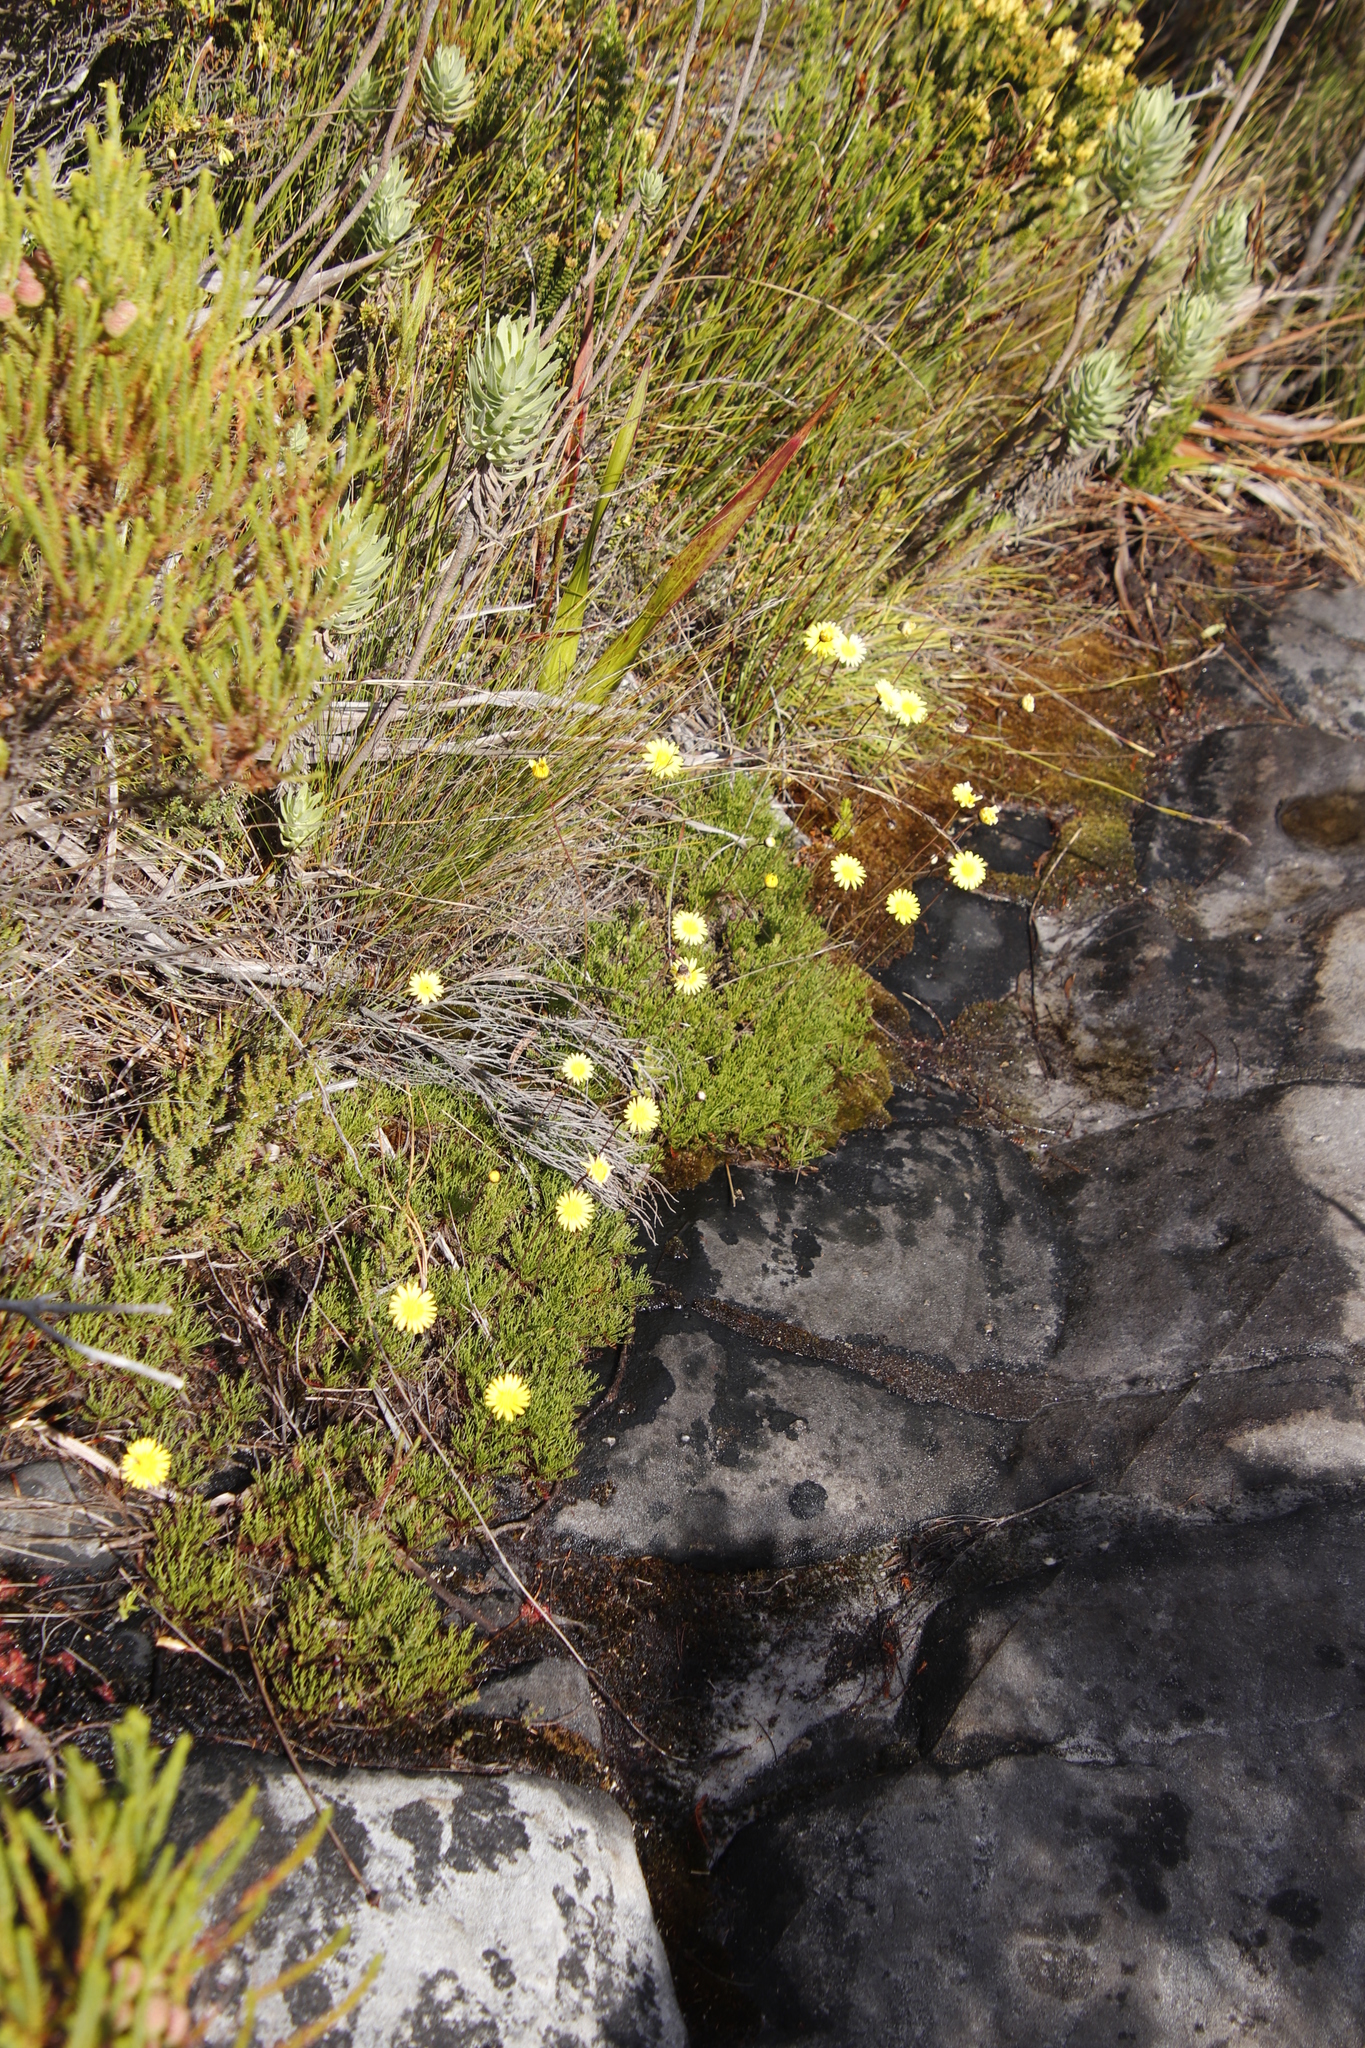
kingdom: Plantae
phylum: Tracheophyta
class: Magnoliopsida
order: Asterales
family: Asteraceae
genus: Ursinia
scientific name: Ursinia nudicaulis
